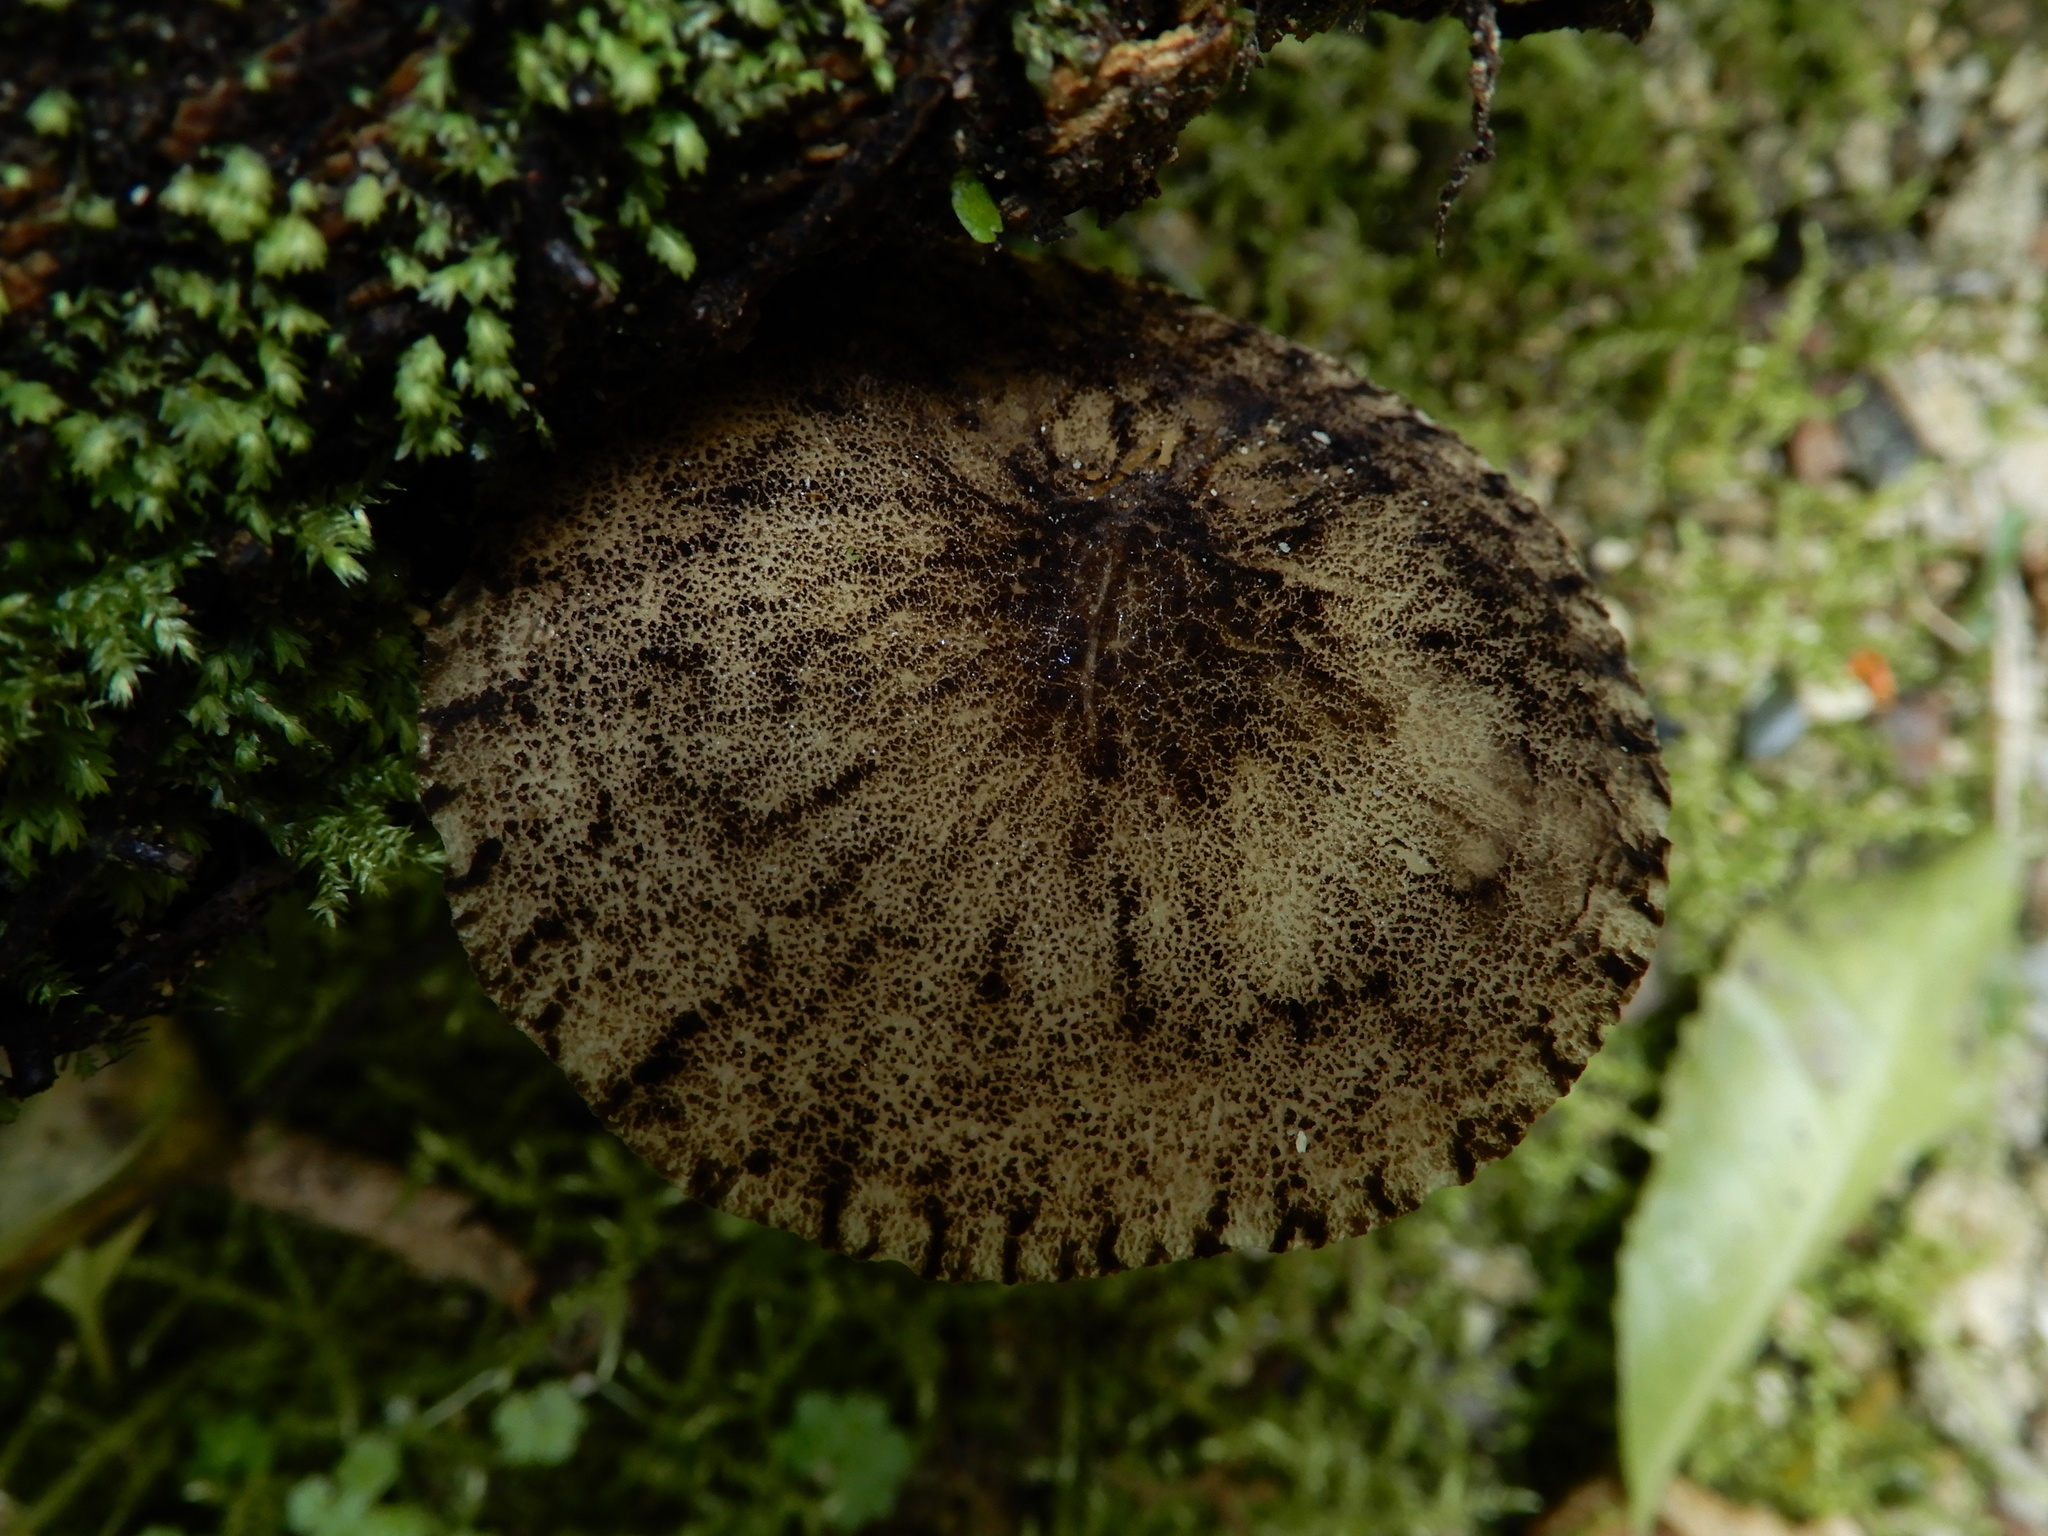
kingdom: Fungi
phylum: Basidiomycota
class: Agaricomycetes
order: Agaricales
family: Pluteaceae
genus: Pluteus
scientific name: Pluteus readiarum
